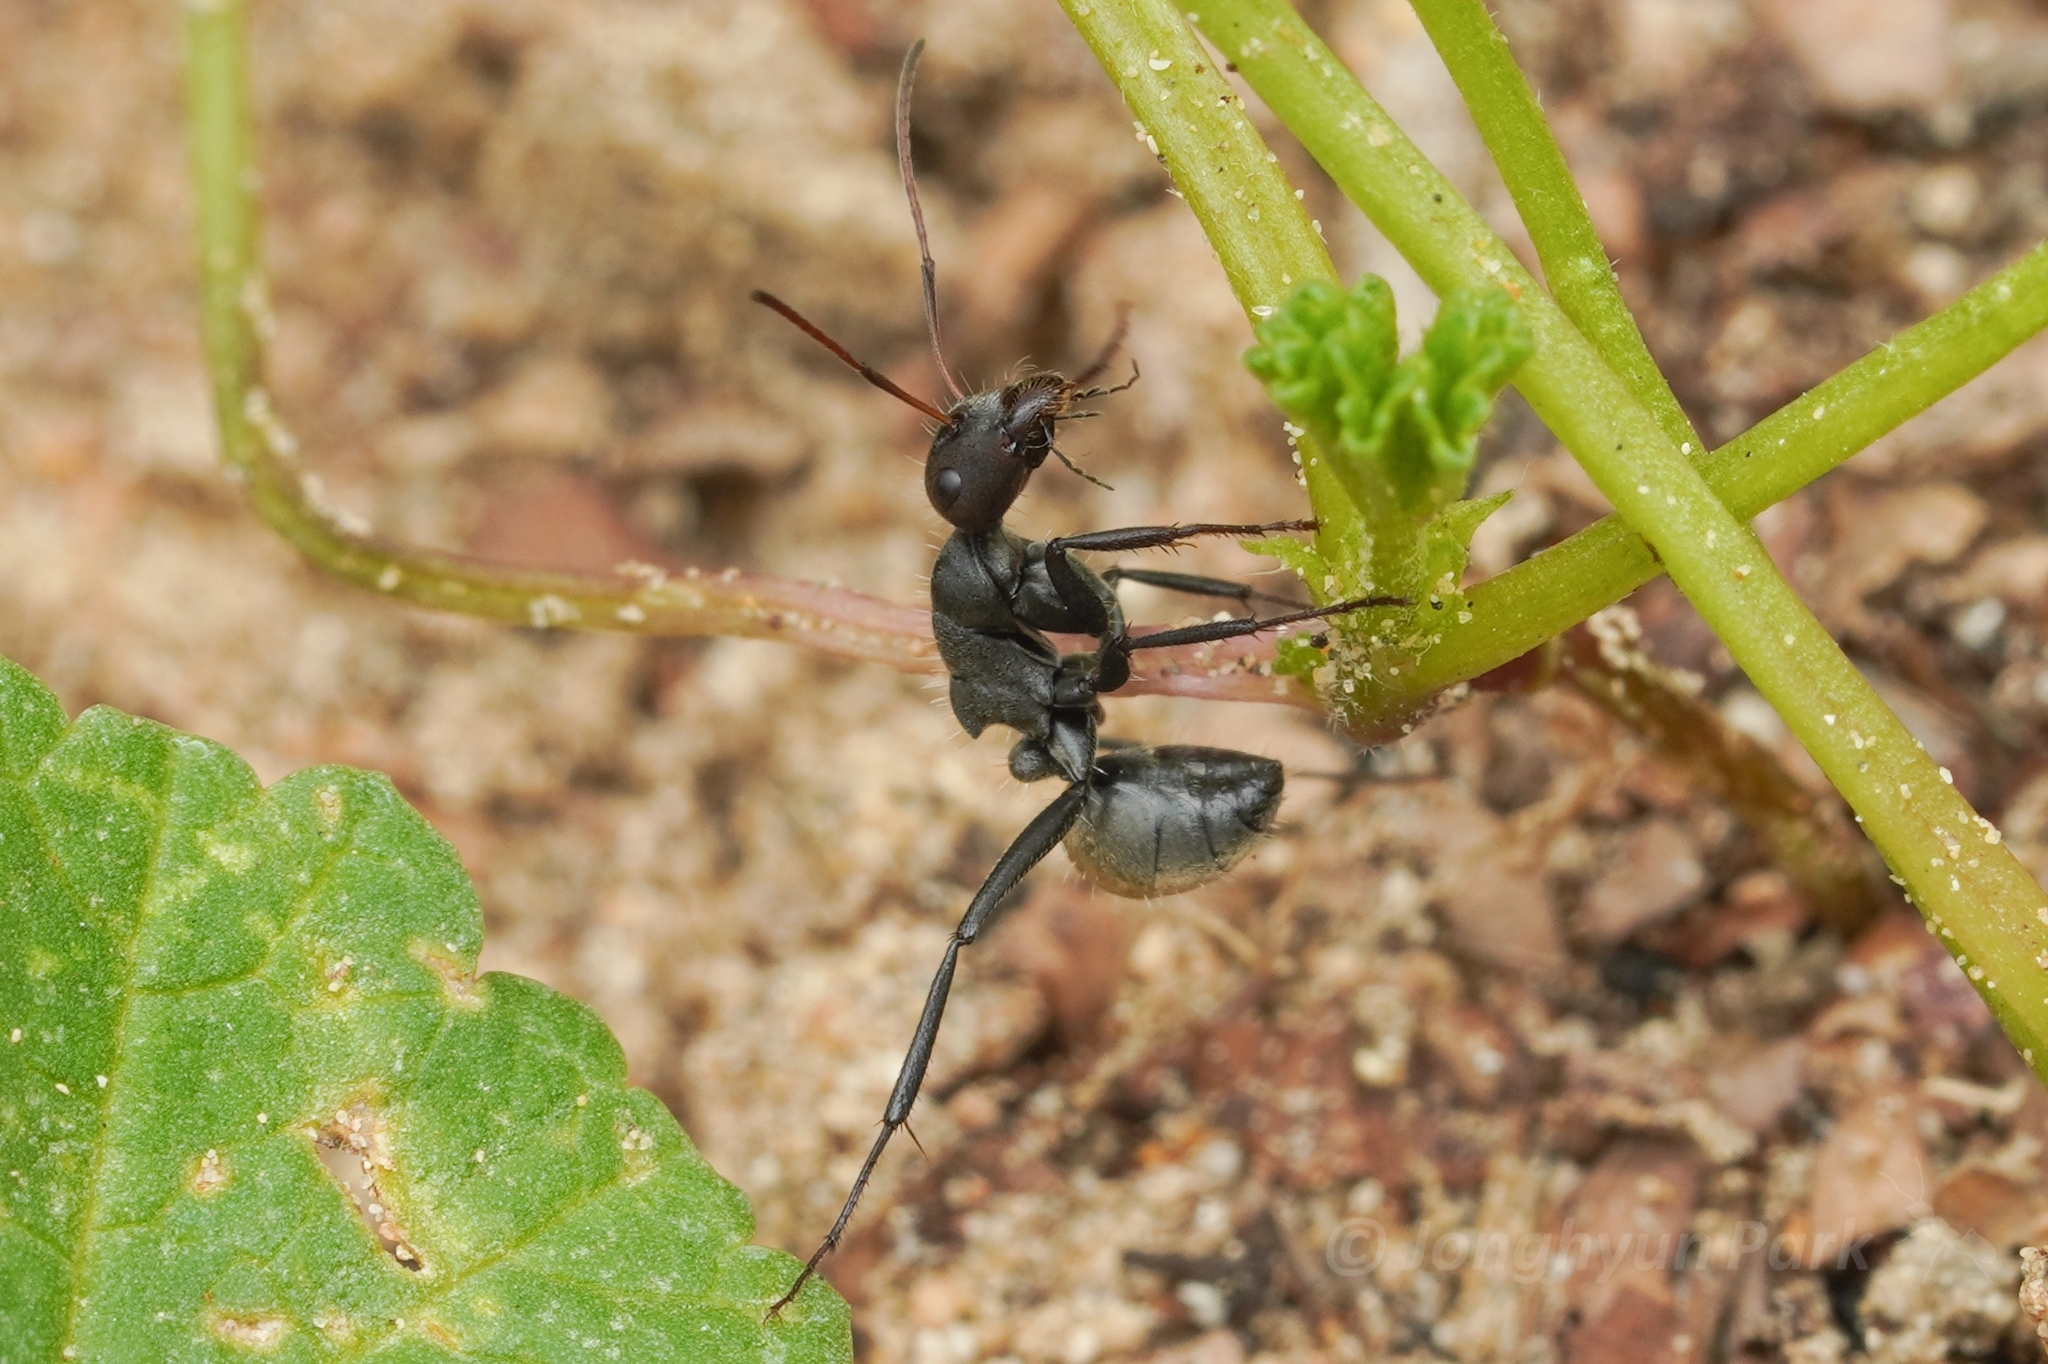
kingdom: Animalia
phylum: Arthropoda
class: Insecta
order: Hymenoptera
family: Formicidae
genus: Camponotus
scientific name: Camponotus sericeus
